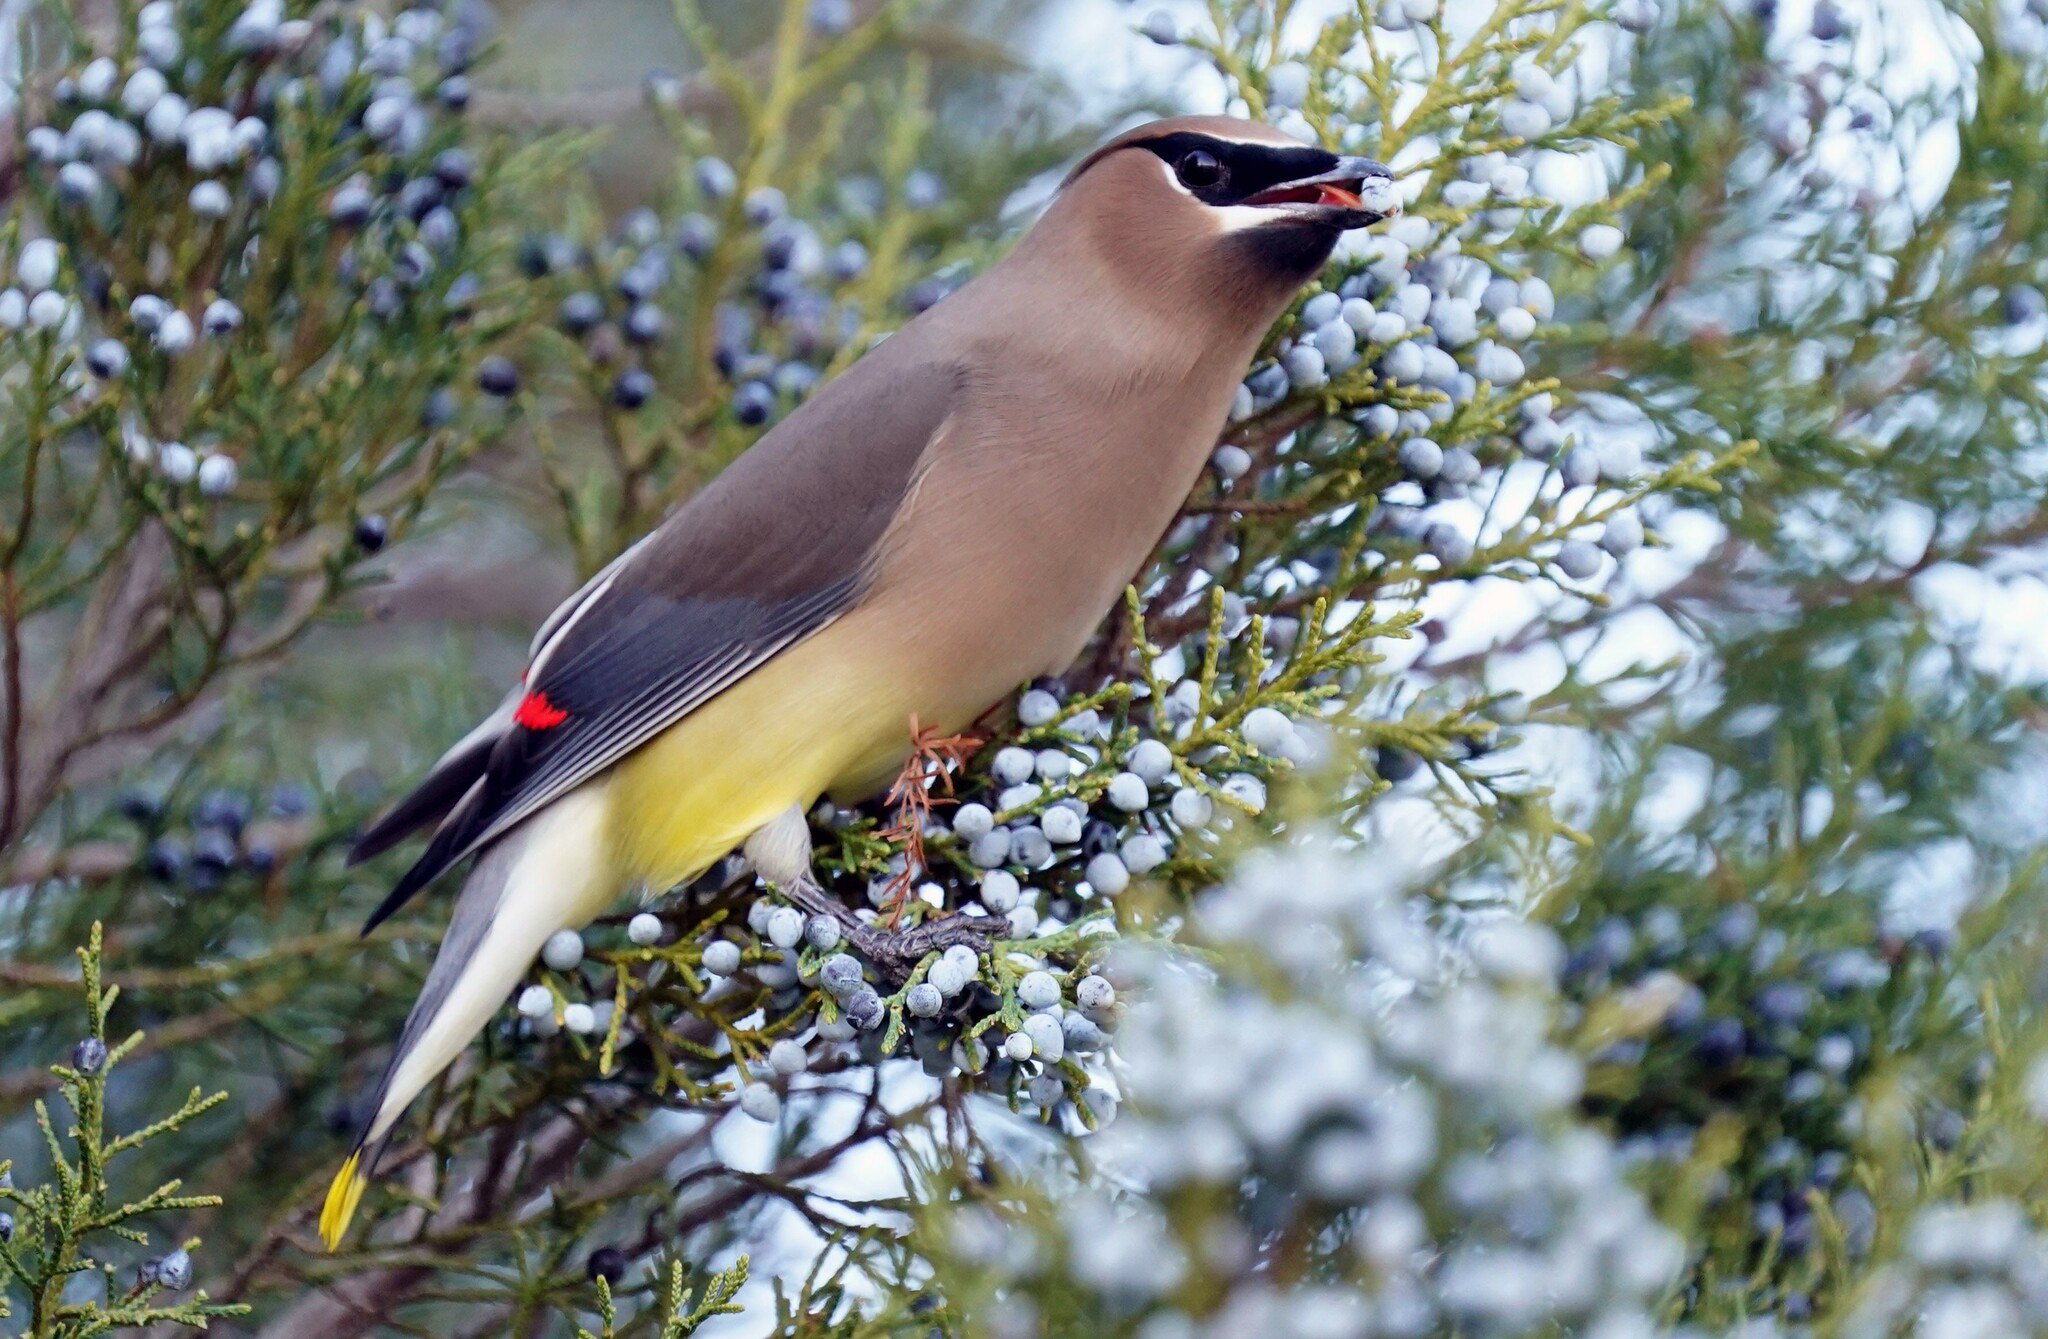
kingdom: Animalia
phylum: Chordata
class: Aves
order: Passeriformes
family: Bombycillidae
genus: Bombycilla
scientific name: Bombycilla cedrorum
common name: Cedar waxwing
